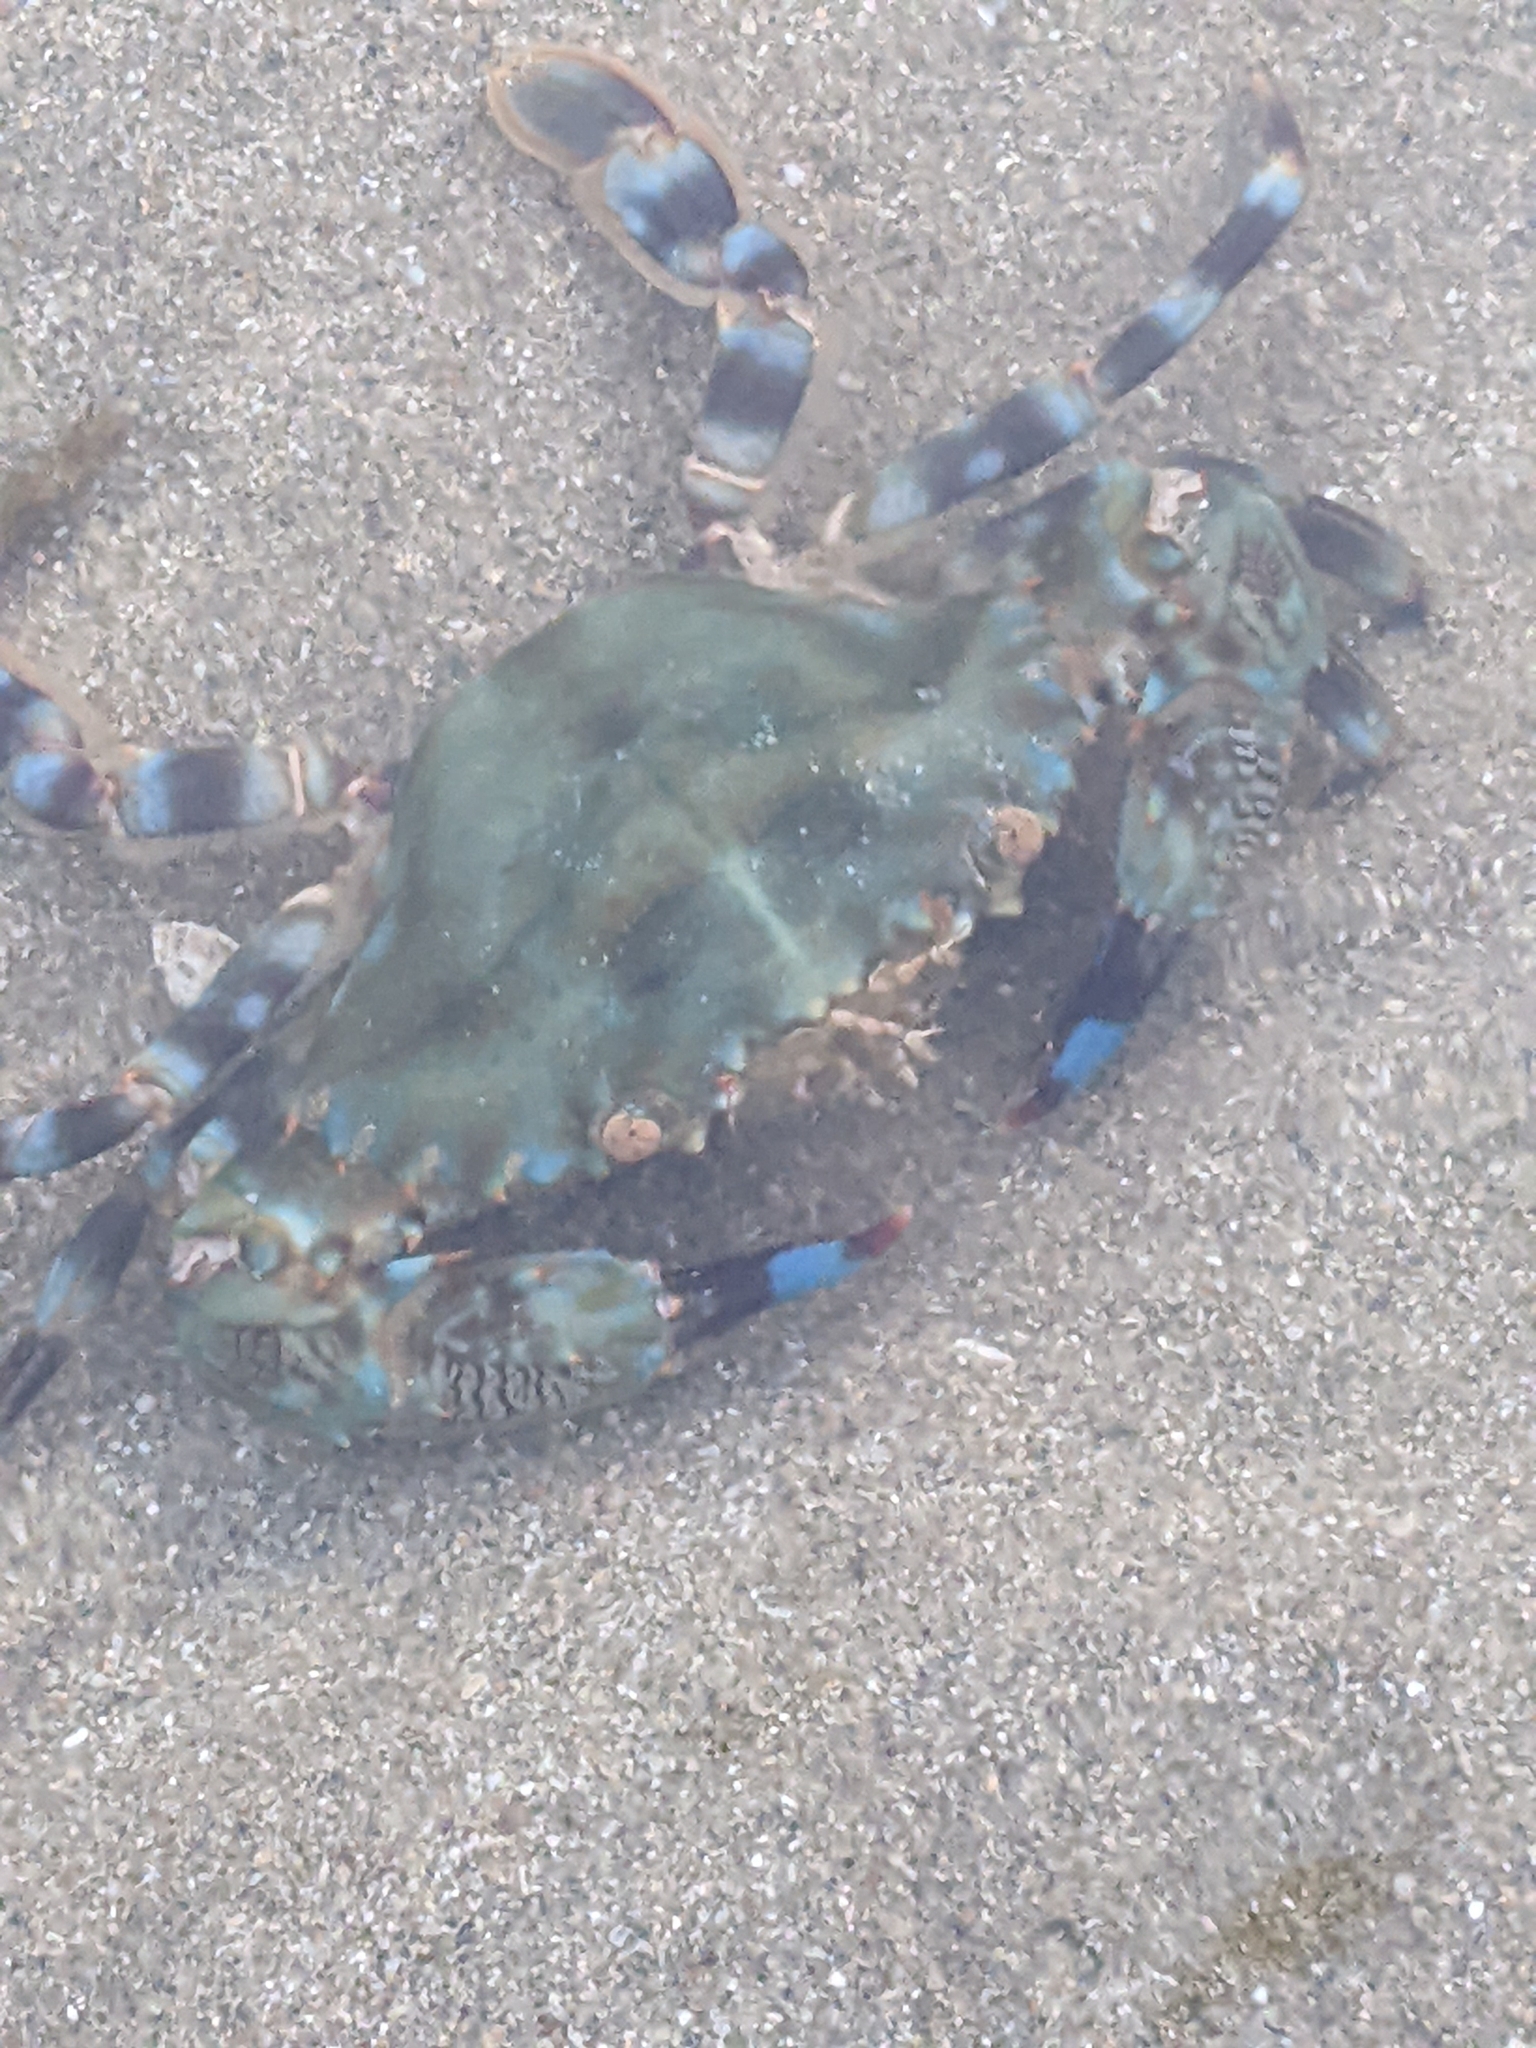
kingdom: Animalia
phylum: Arthropoda
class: Malacostraca
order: Decapoda
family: Portunidae
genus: Charybdis
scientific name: Charybdis annulata
